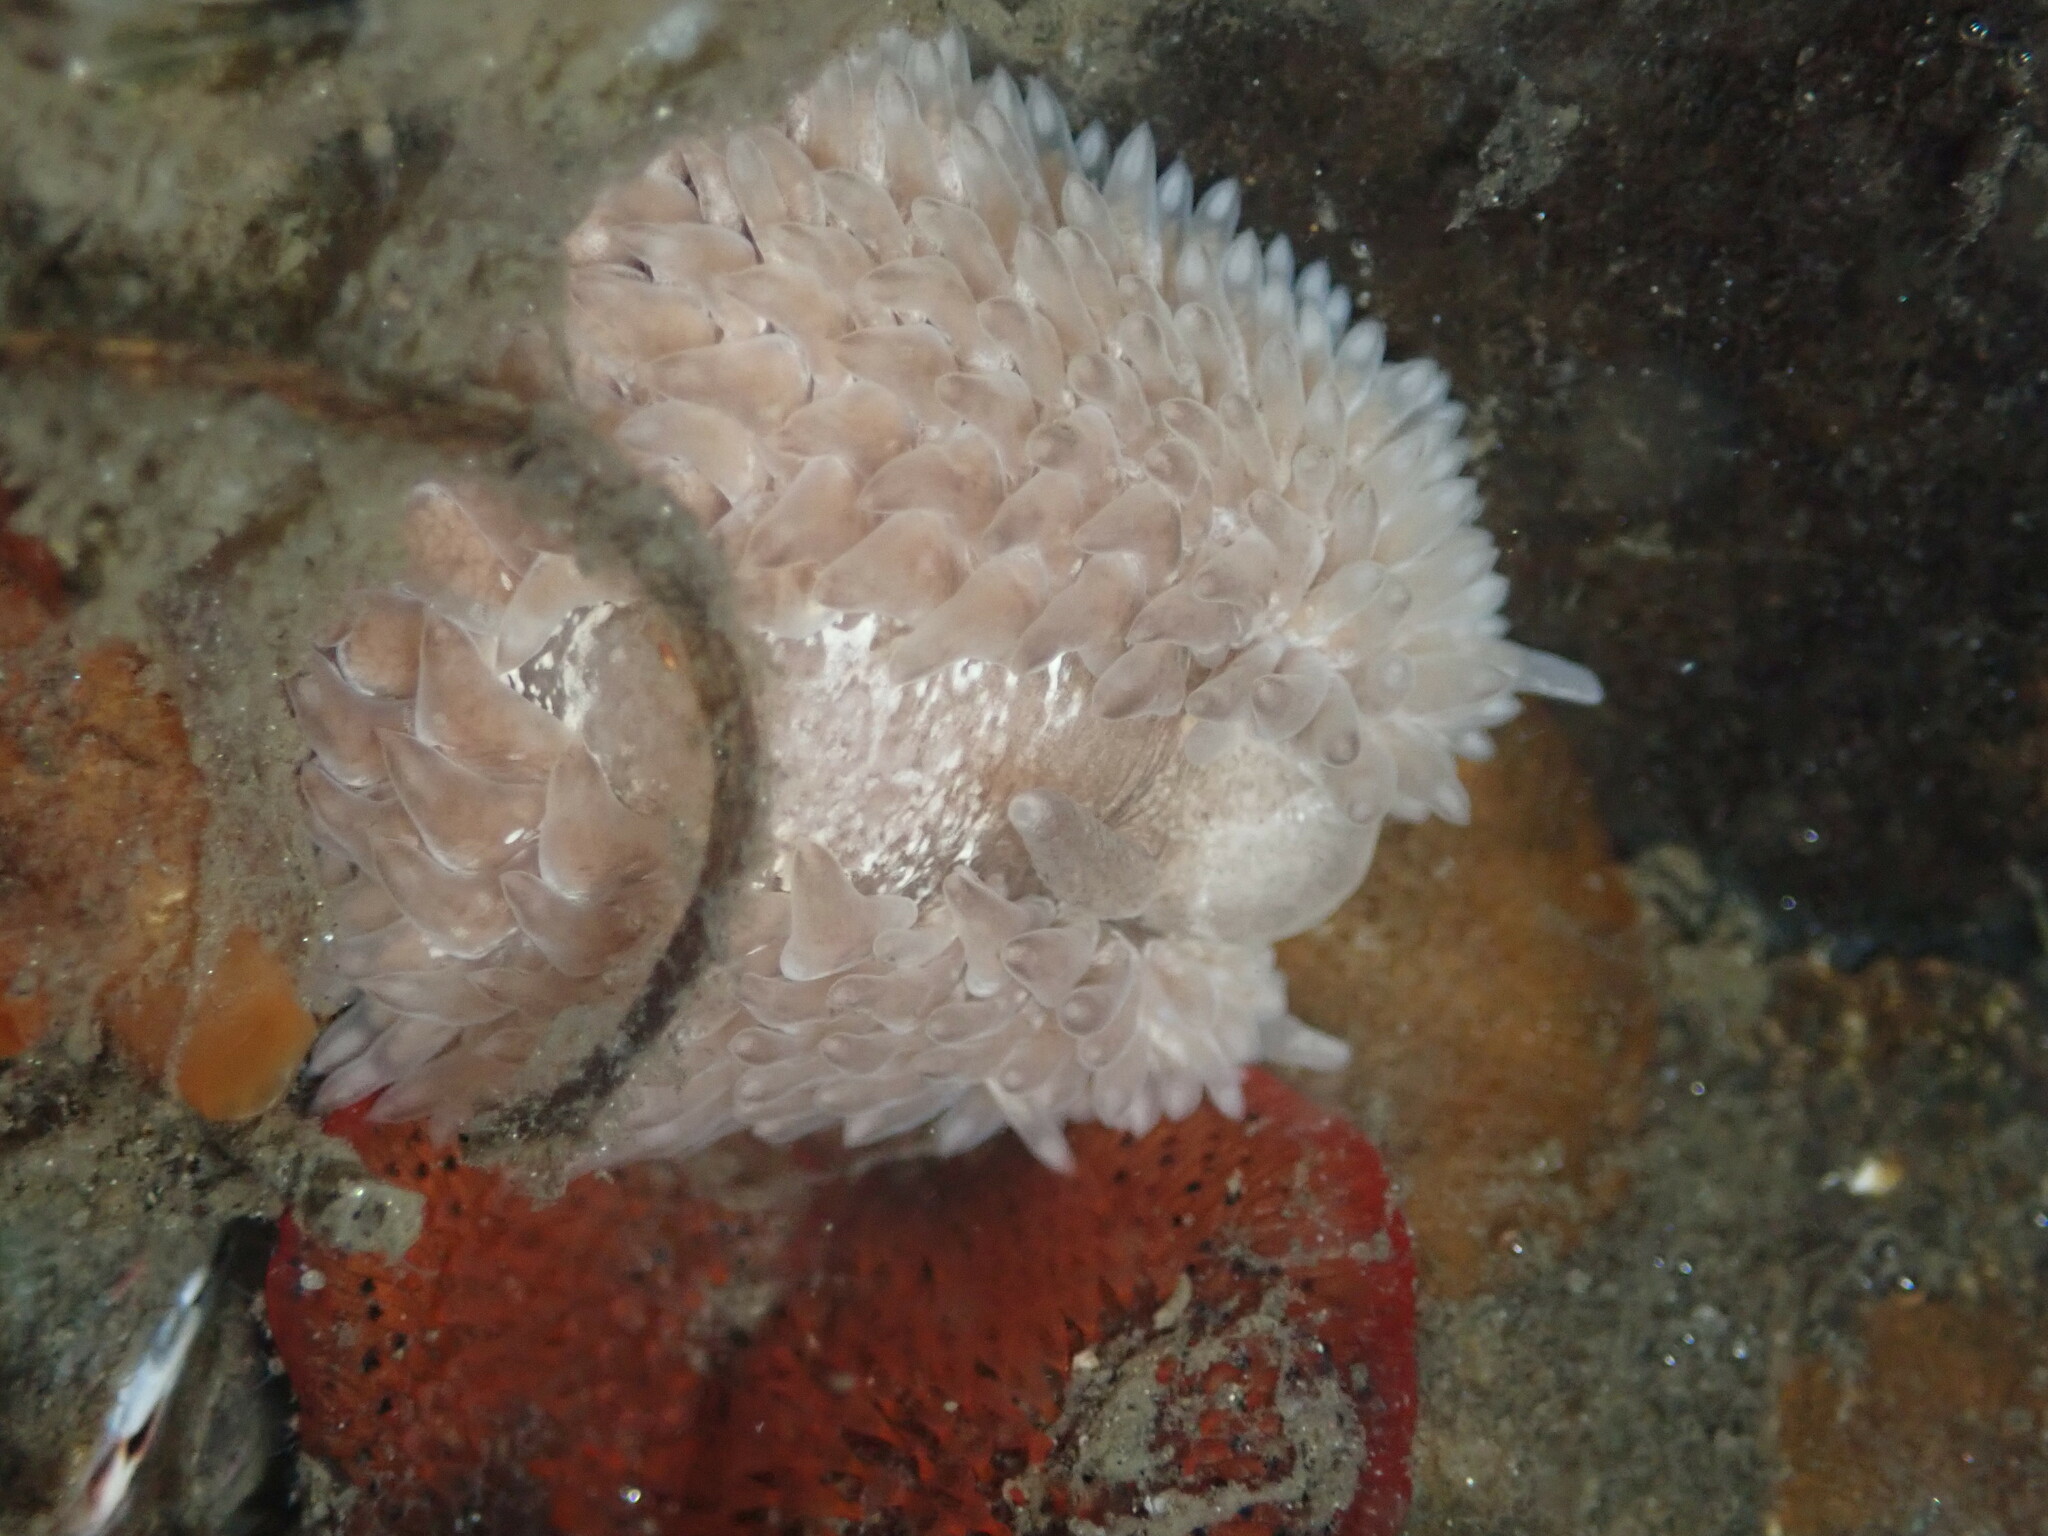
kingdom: Animalia
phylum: Mollusca
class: Gastropoda
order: Nudibranchia
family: Aeolidiidae
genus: Aeolidia
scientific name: Aeolidia loui
